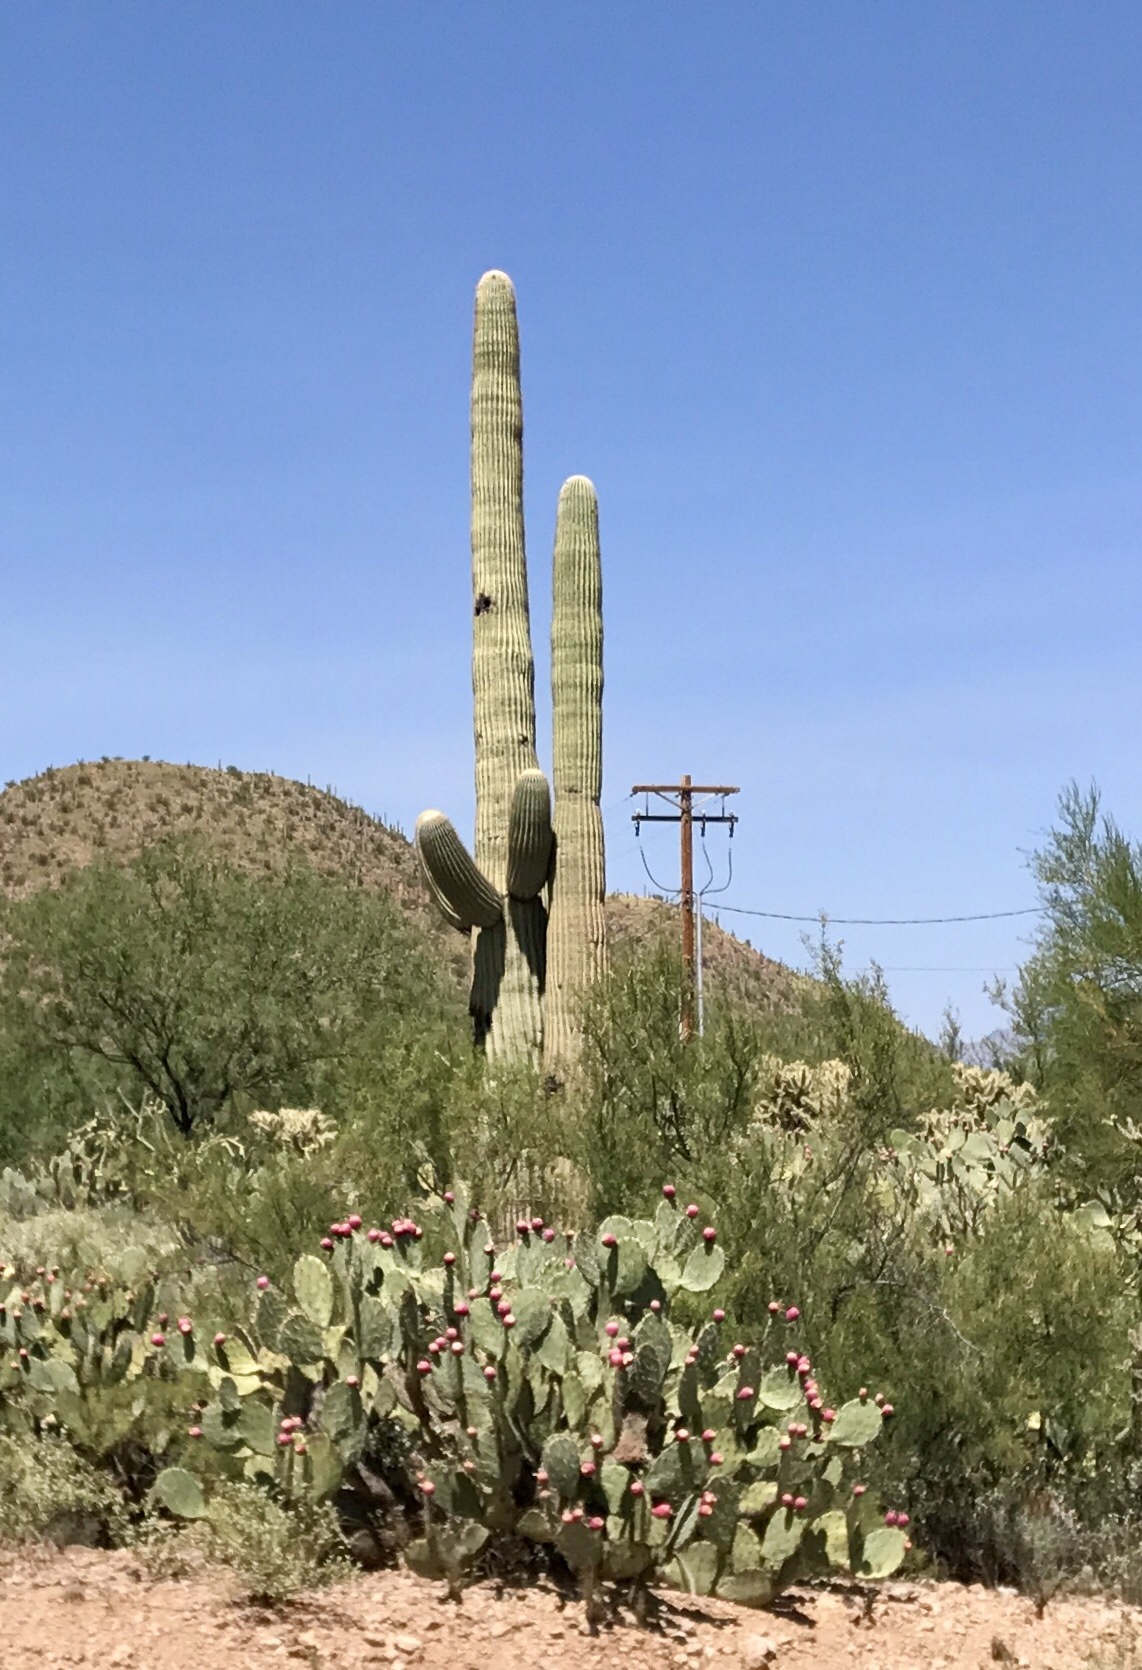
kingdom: Plantae
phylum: Tracheophyta
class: Magnoliopsida
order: Caryophyllales
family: Cactaceae
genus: Carnegiea
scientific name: Carnegiea gigantea
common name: Saguaro
